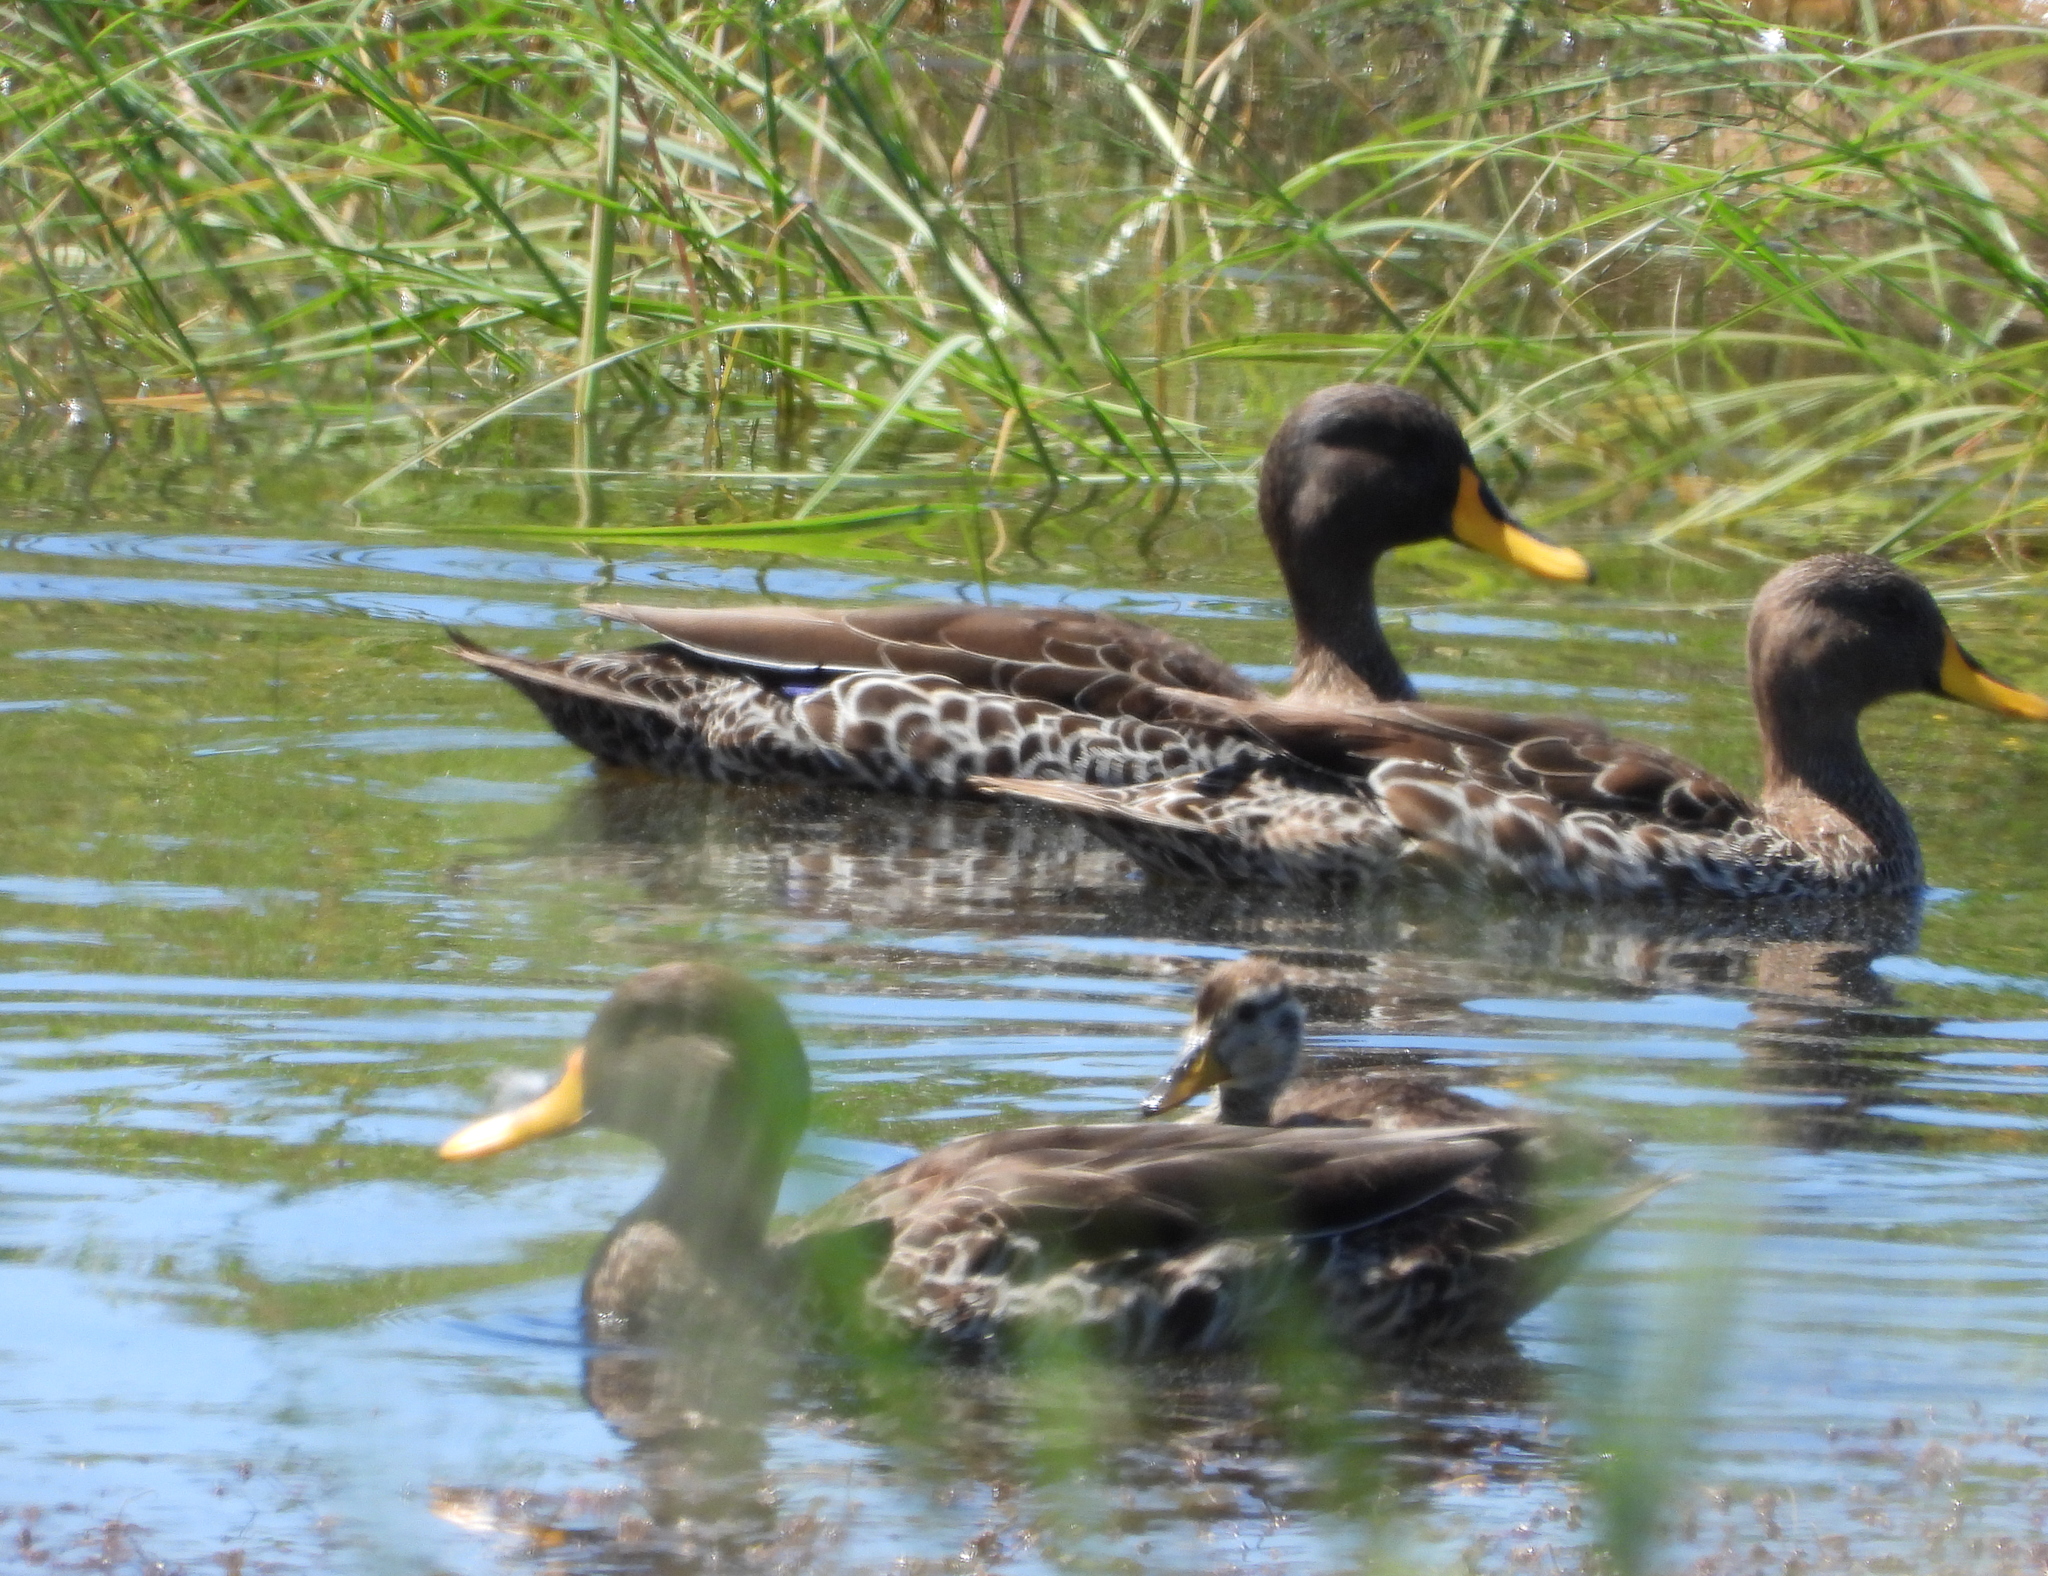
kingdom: Animalia
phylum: Chordata
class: Aves
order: Anseriformes
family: Anatidae
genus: Anas
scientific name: Anas undulata
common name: Yellow-billed duck
